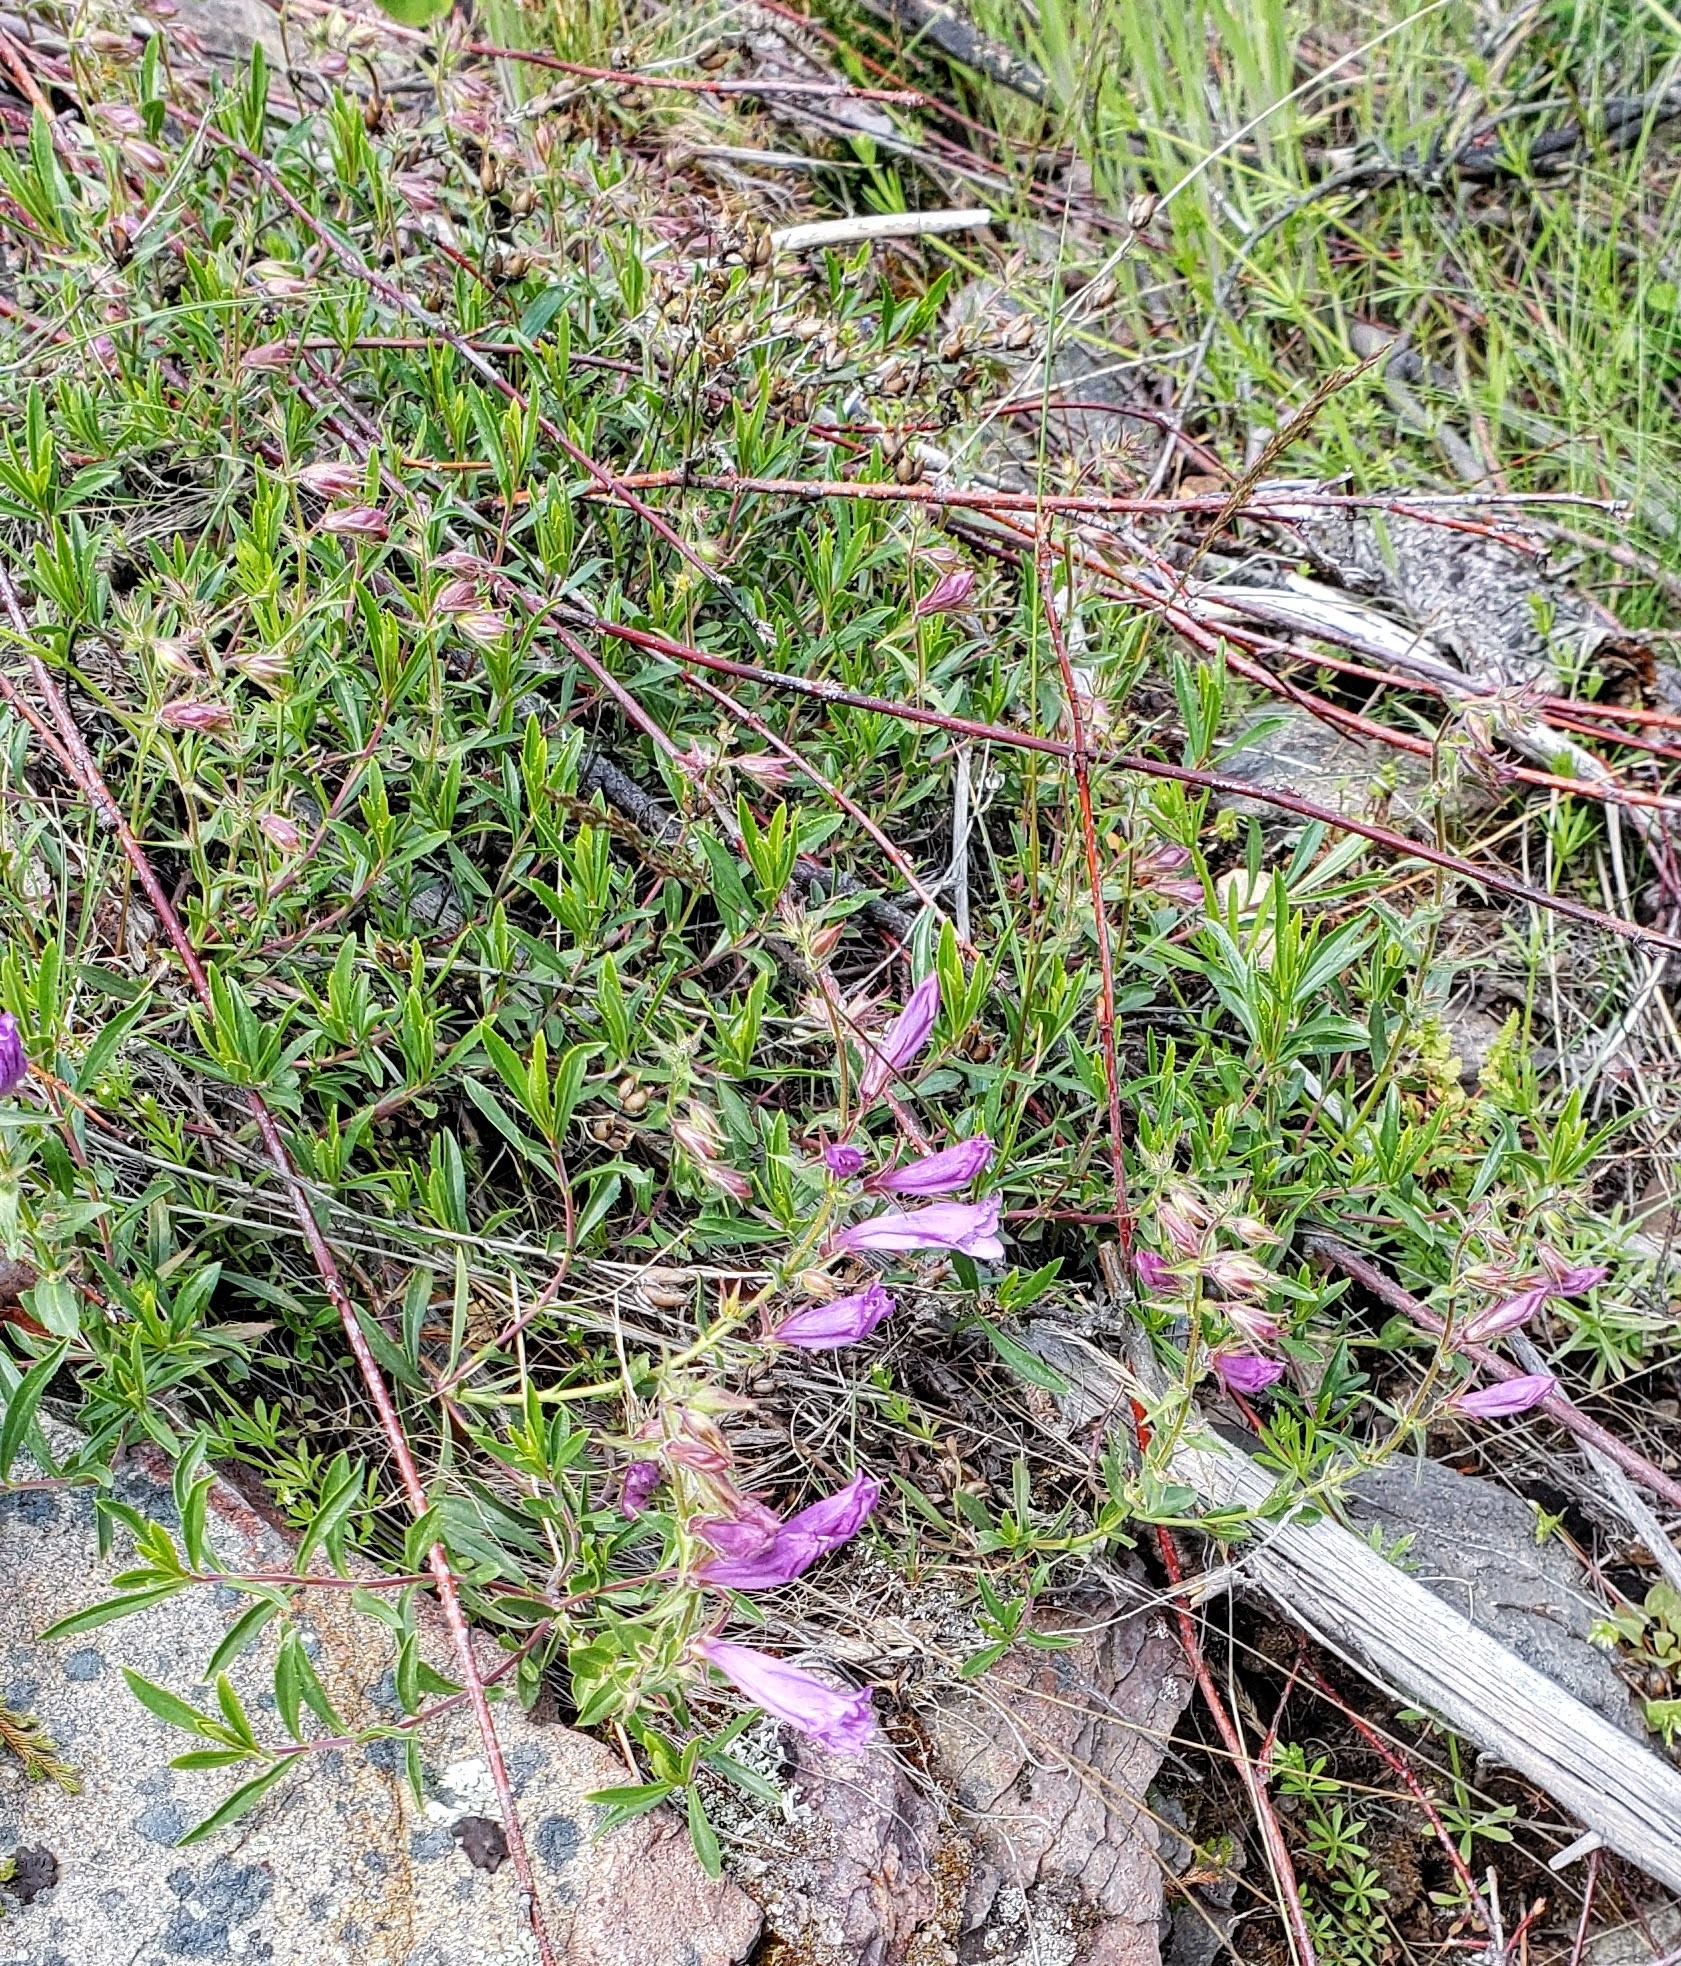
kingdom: Plantae
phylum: Tracheophyta
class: Magnoliopsida
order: Lamiales
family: Plantaginaceae
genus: Penstemon
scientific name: Penstemon fruticosus
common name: Bush penstemon
